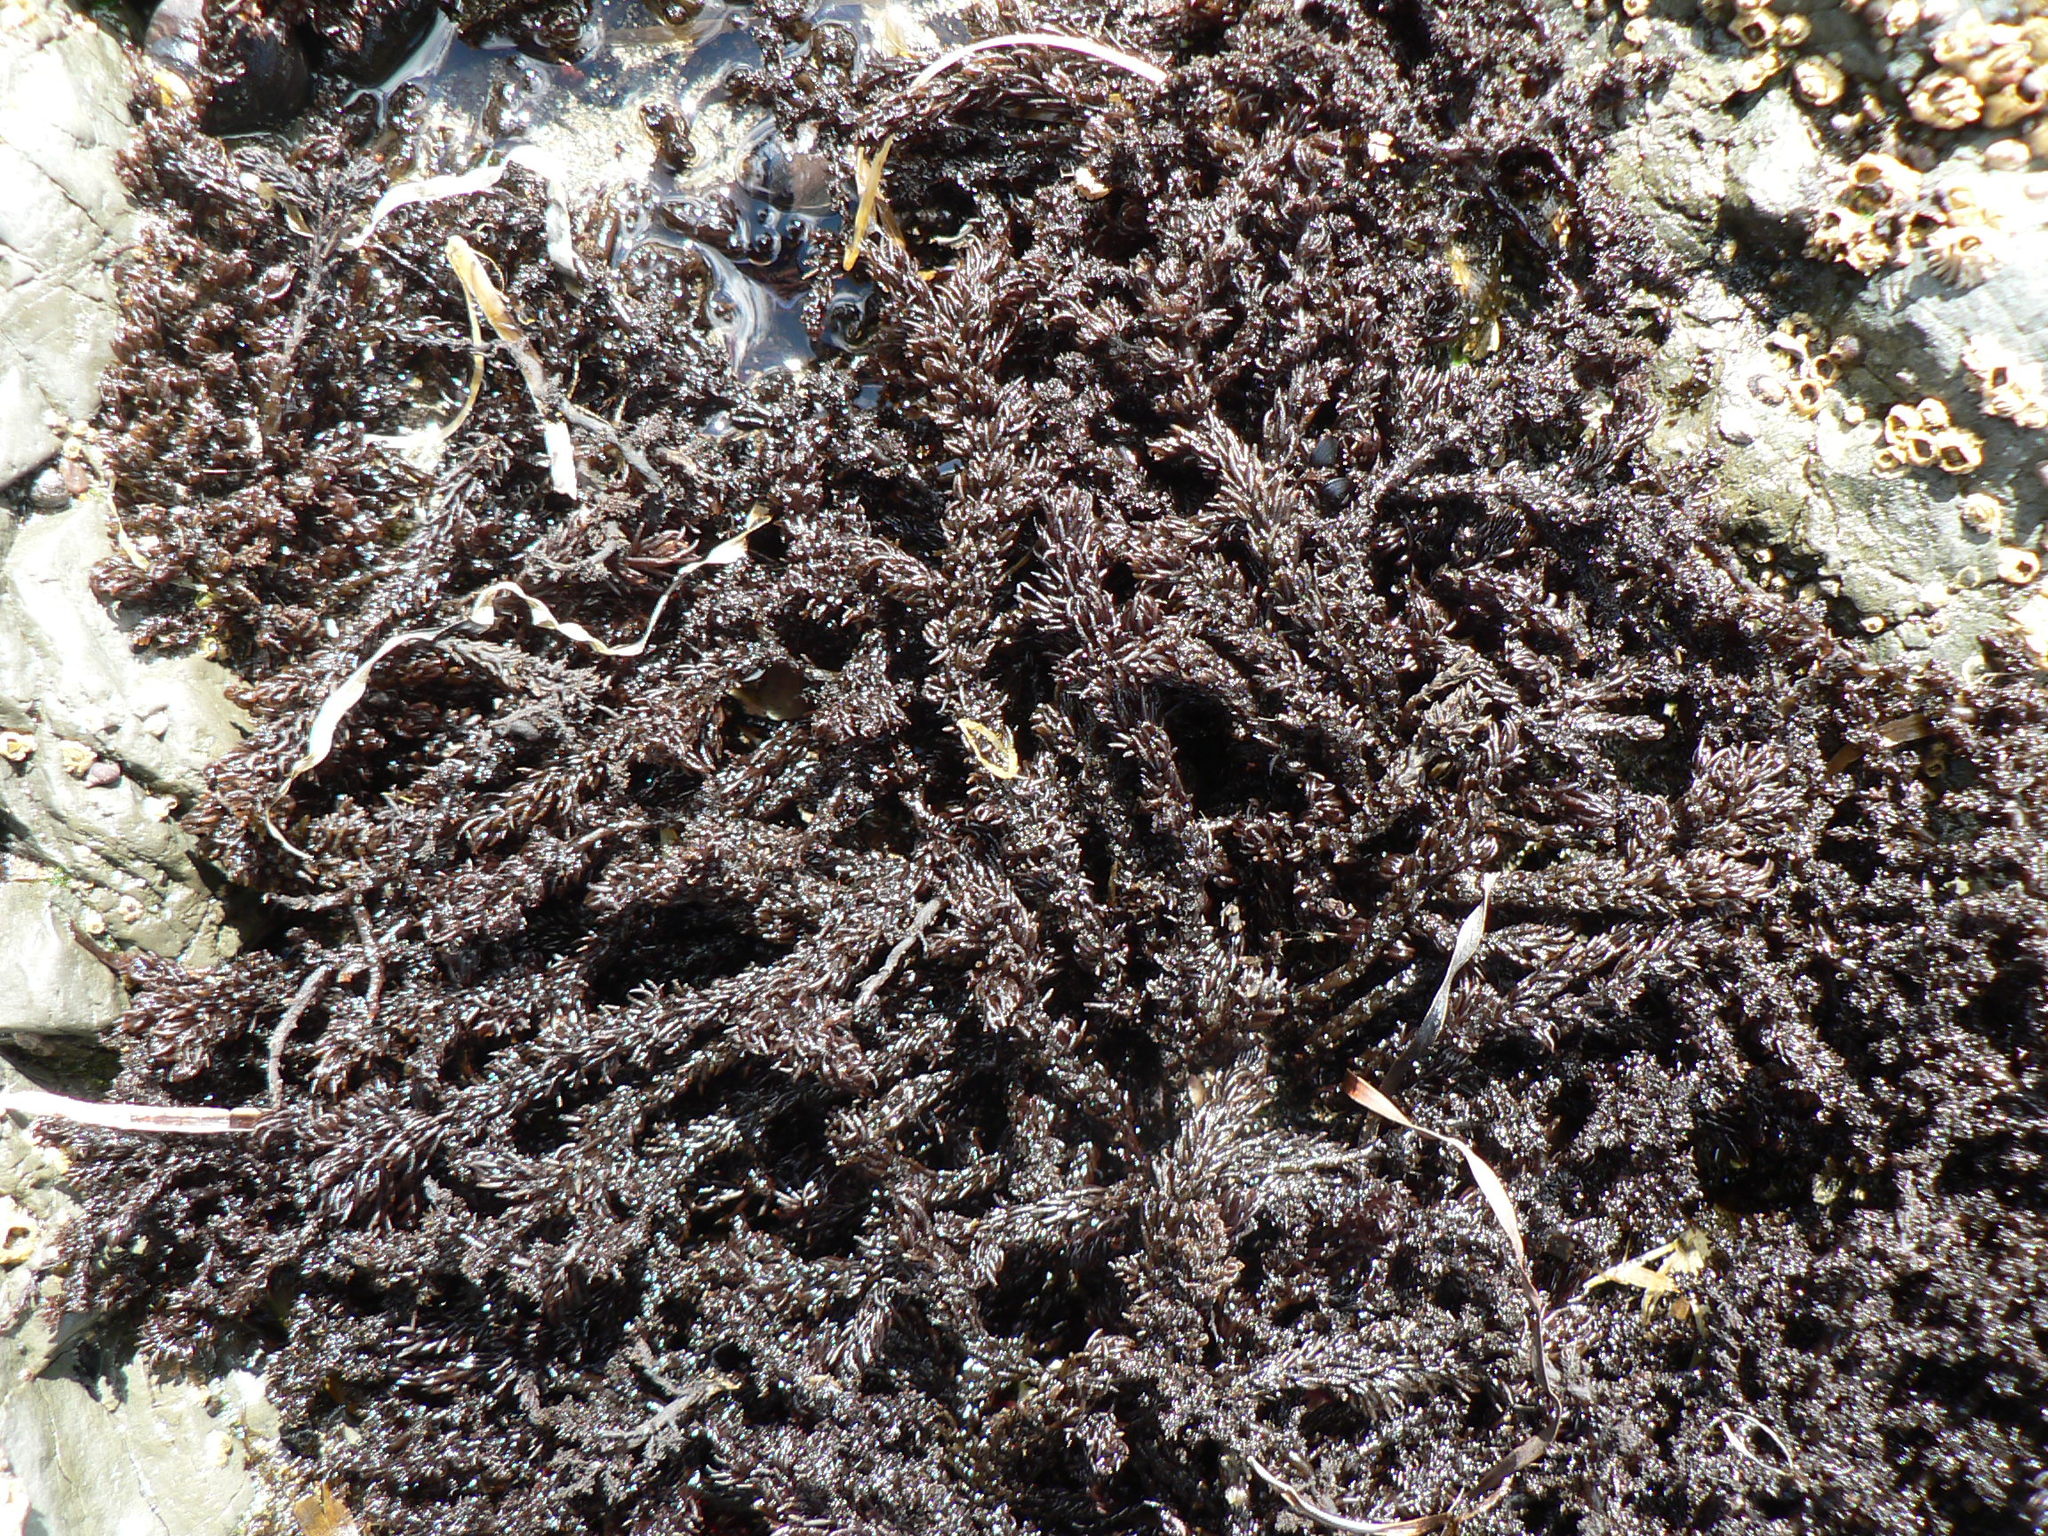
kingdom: Plantae
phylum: Rhodophyta
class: Florideophyceae
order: Ceramiales
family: Rhodomelaceae
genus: Neorhodomela
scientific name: Neorhodomela larix
